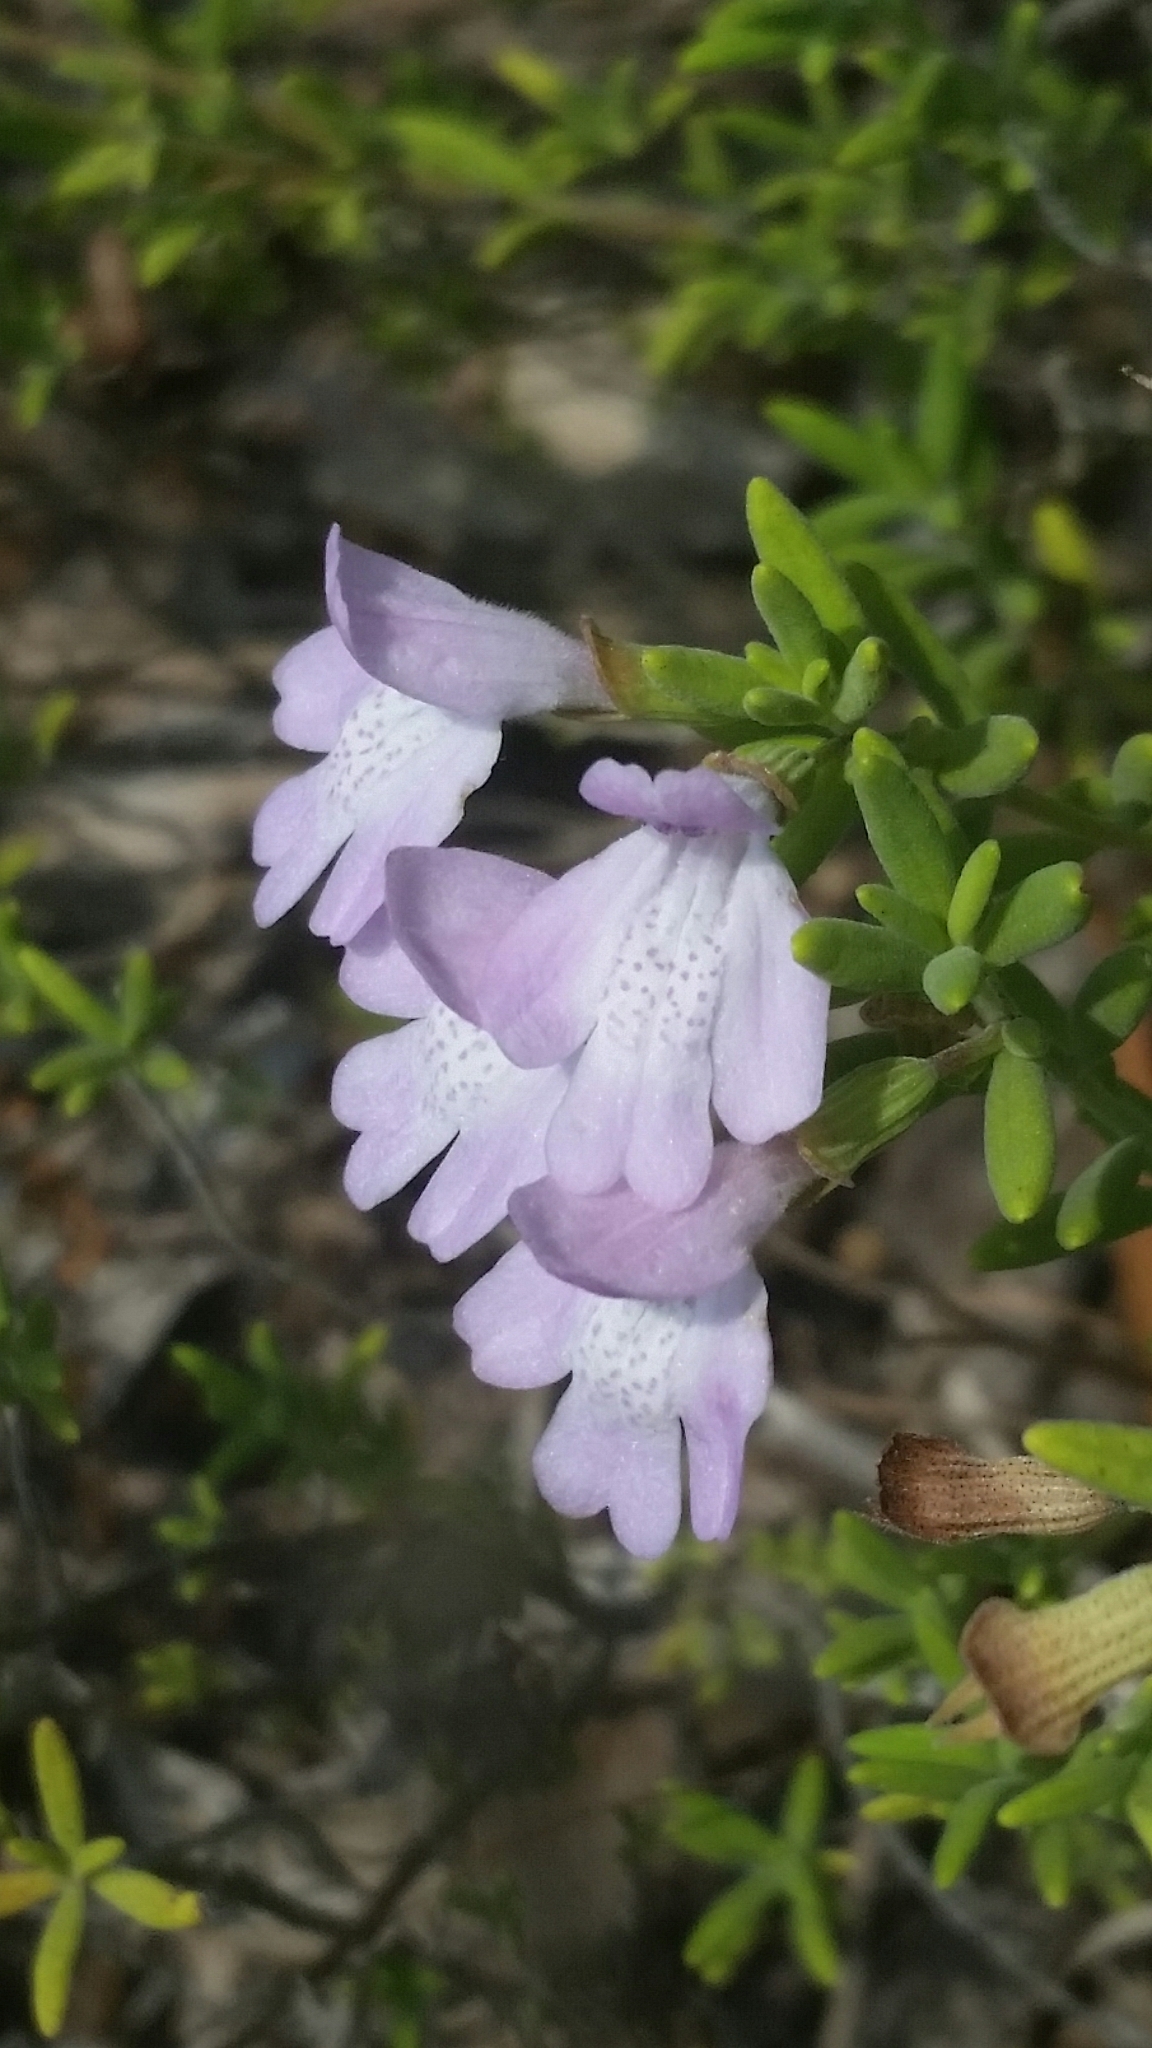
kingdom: Plantae
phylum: Tracheophyta
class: Magnoliopsida
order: Lamiales
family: Lamiaceae
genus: Clinopodium
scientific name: Clinopodium ashei
